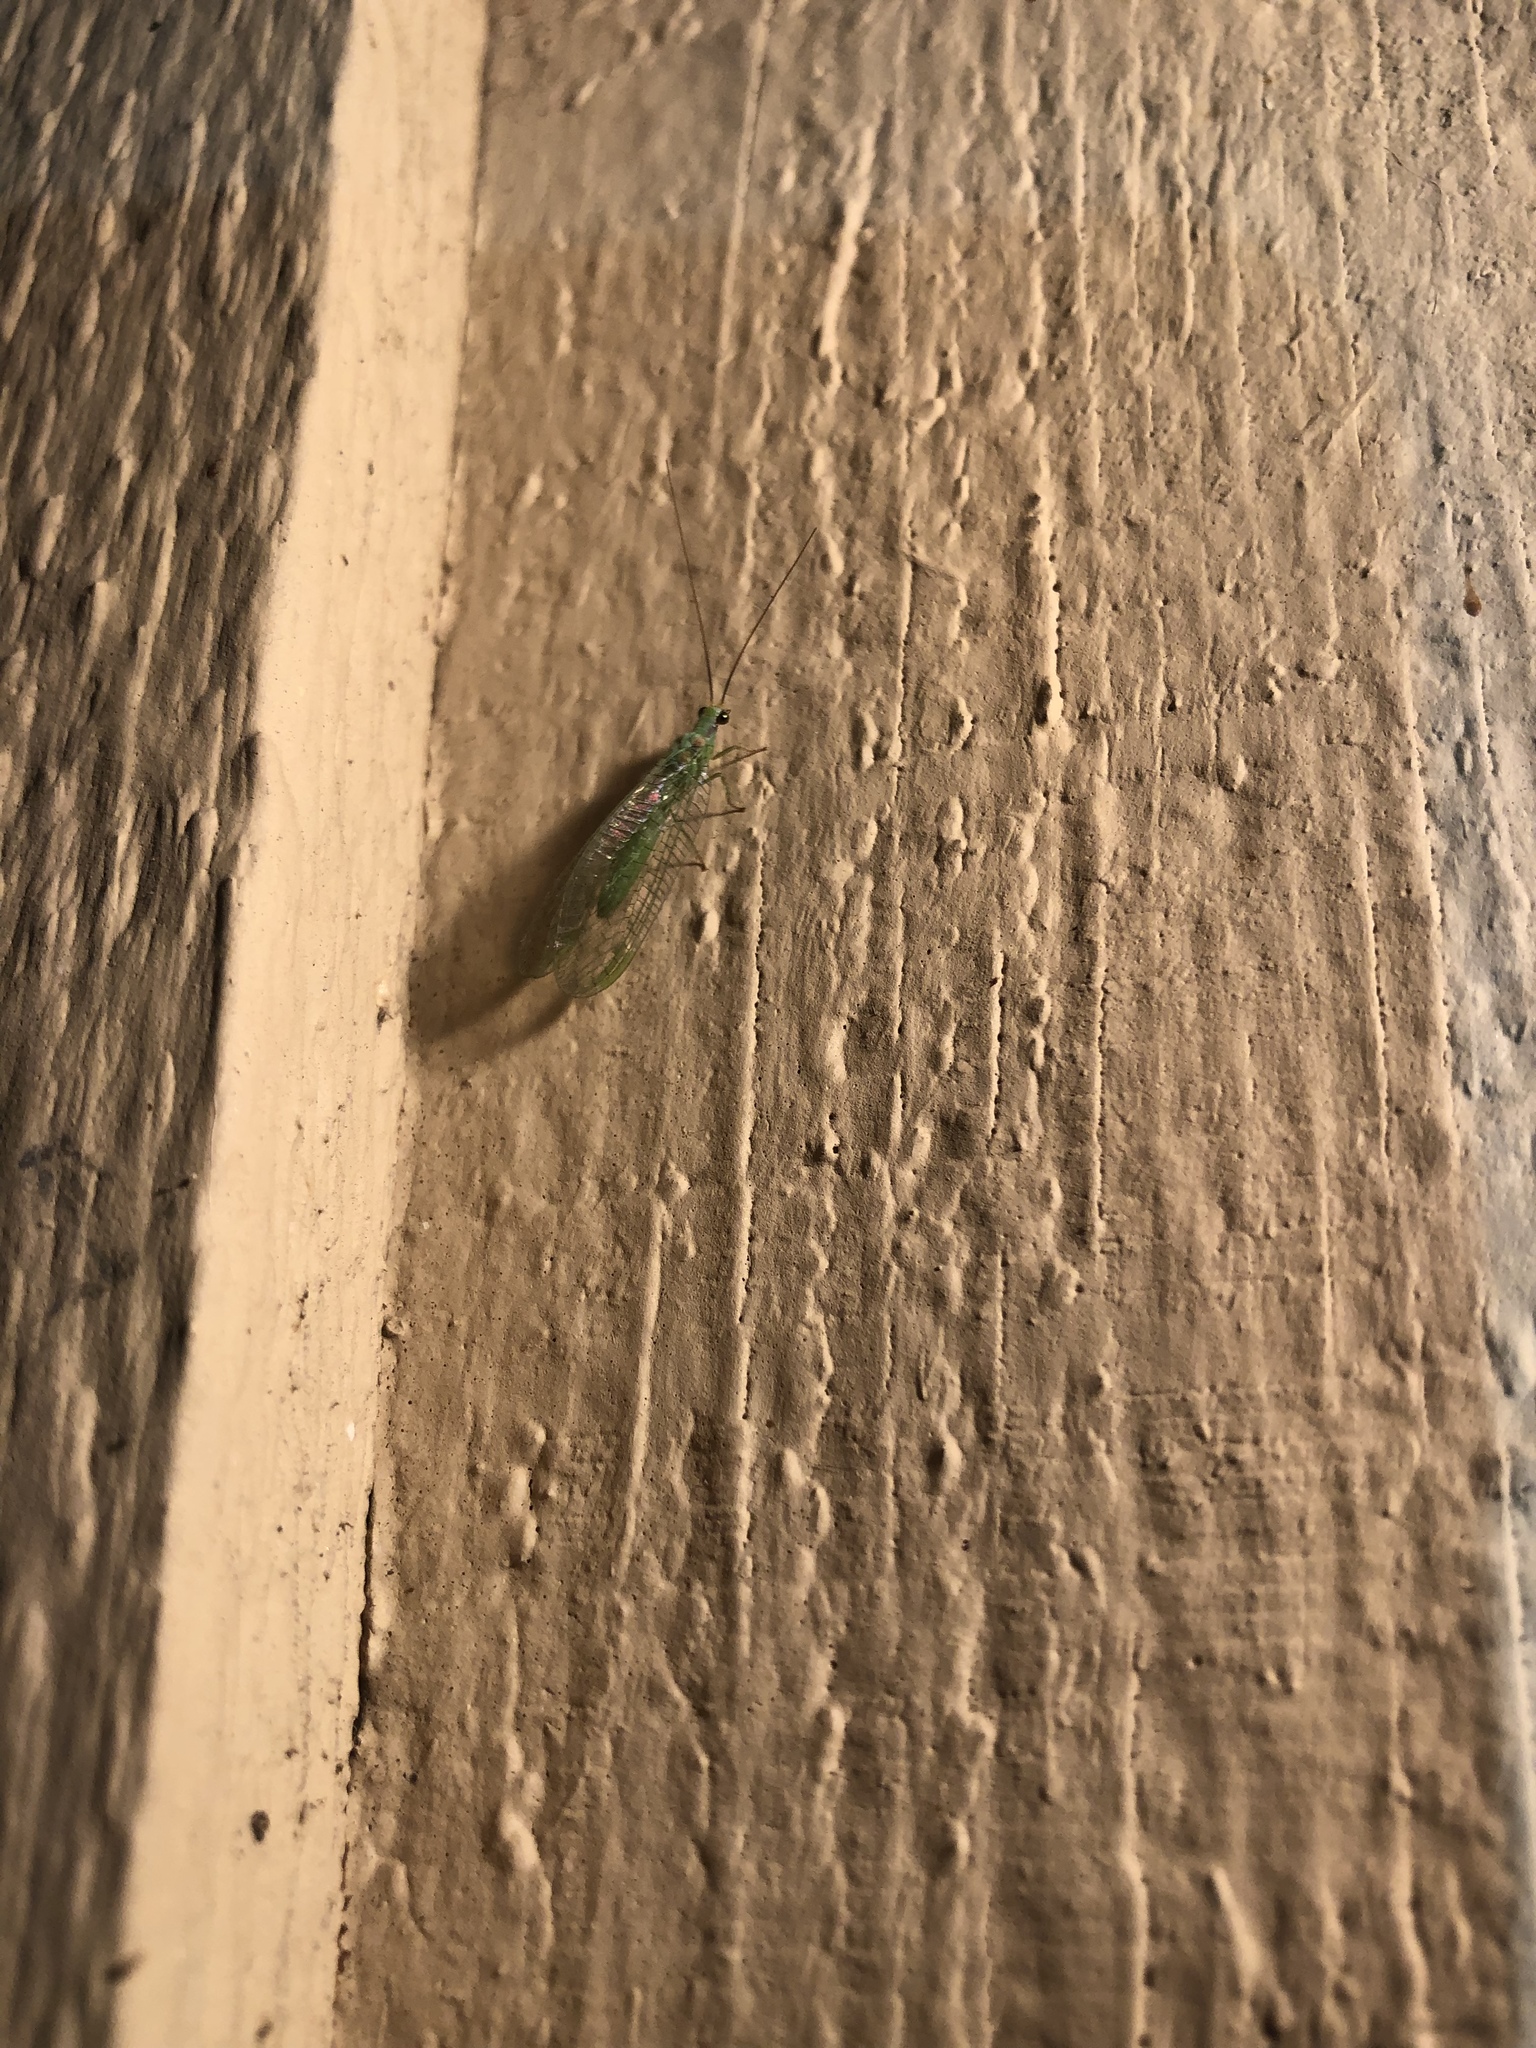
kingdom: Animalia
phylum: Arthropoda
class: Insecta
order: Neuroptera
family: Chrysopidae
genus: Chrysopa
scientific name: Chrysopa coloradensis
